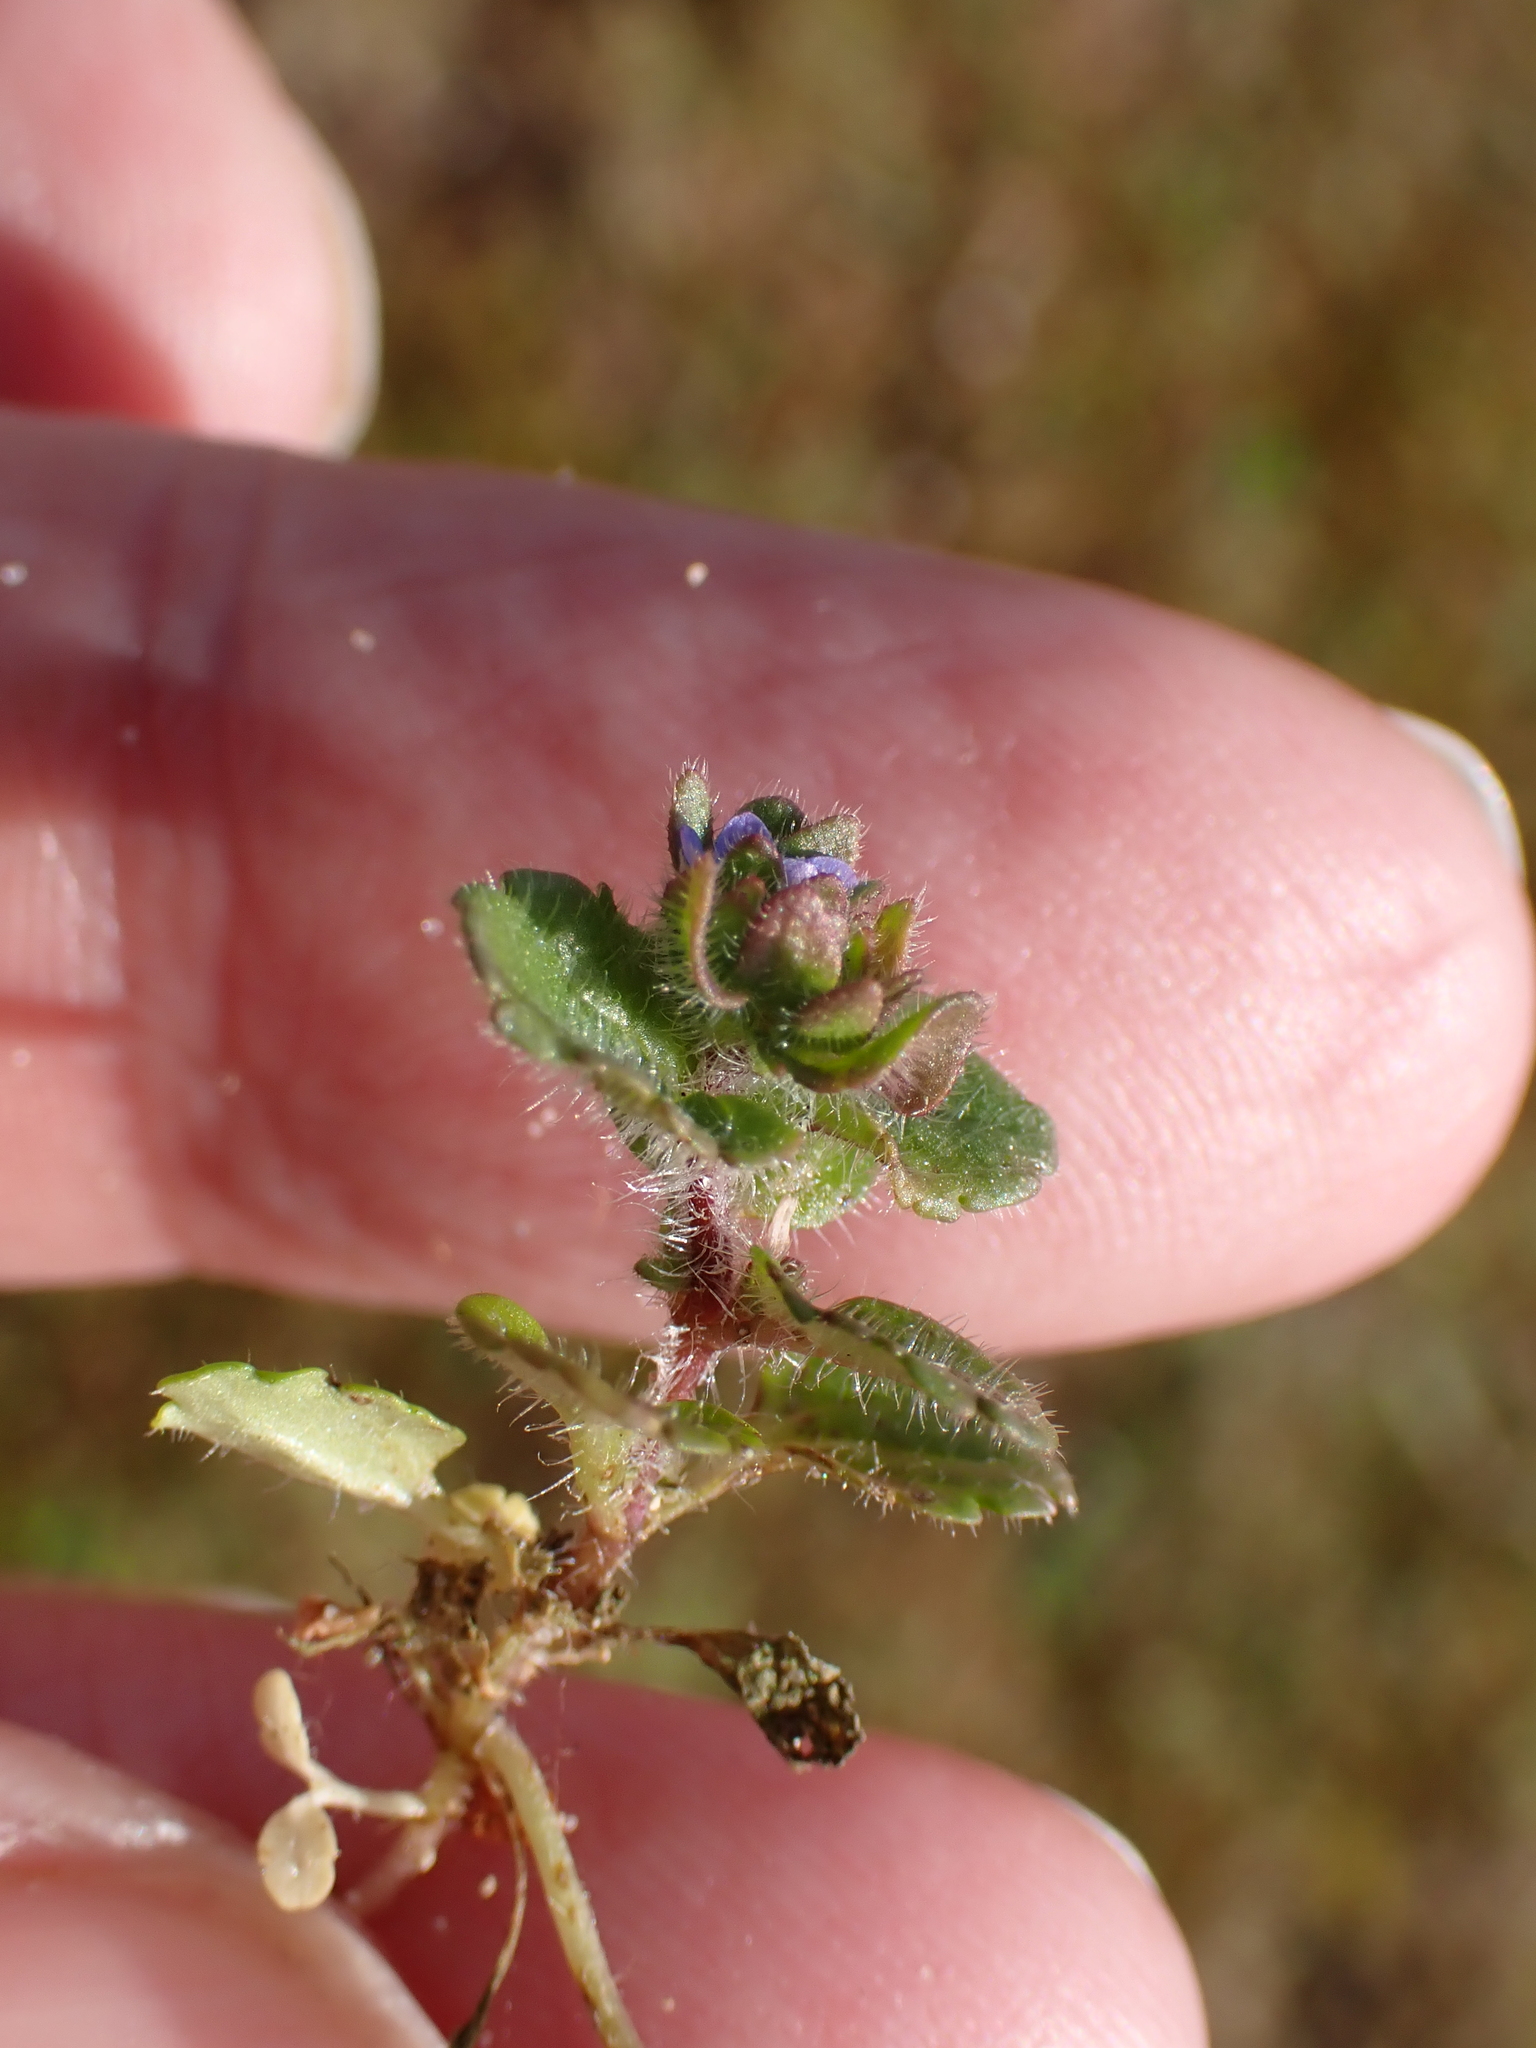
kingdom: Plantae
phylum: Tracheophyta
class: Magnoliopsida
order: Lamiales
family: Plantaginaceae
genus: Veronica
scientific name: Veronica arvensis
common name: Corn speedwell
